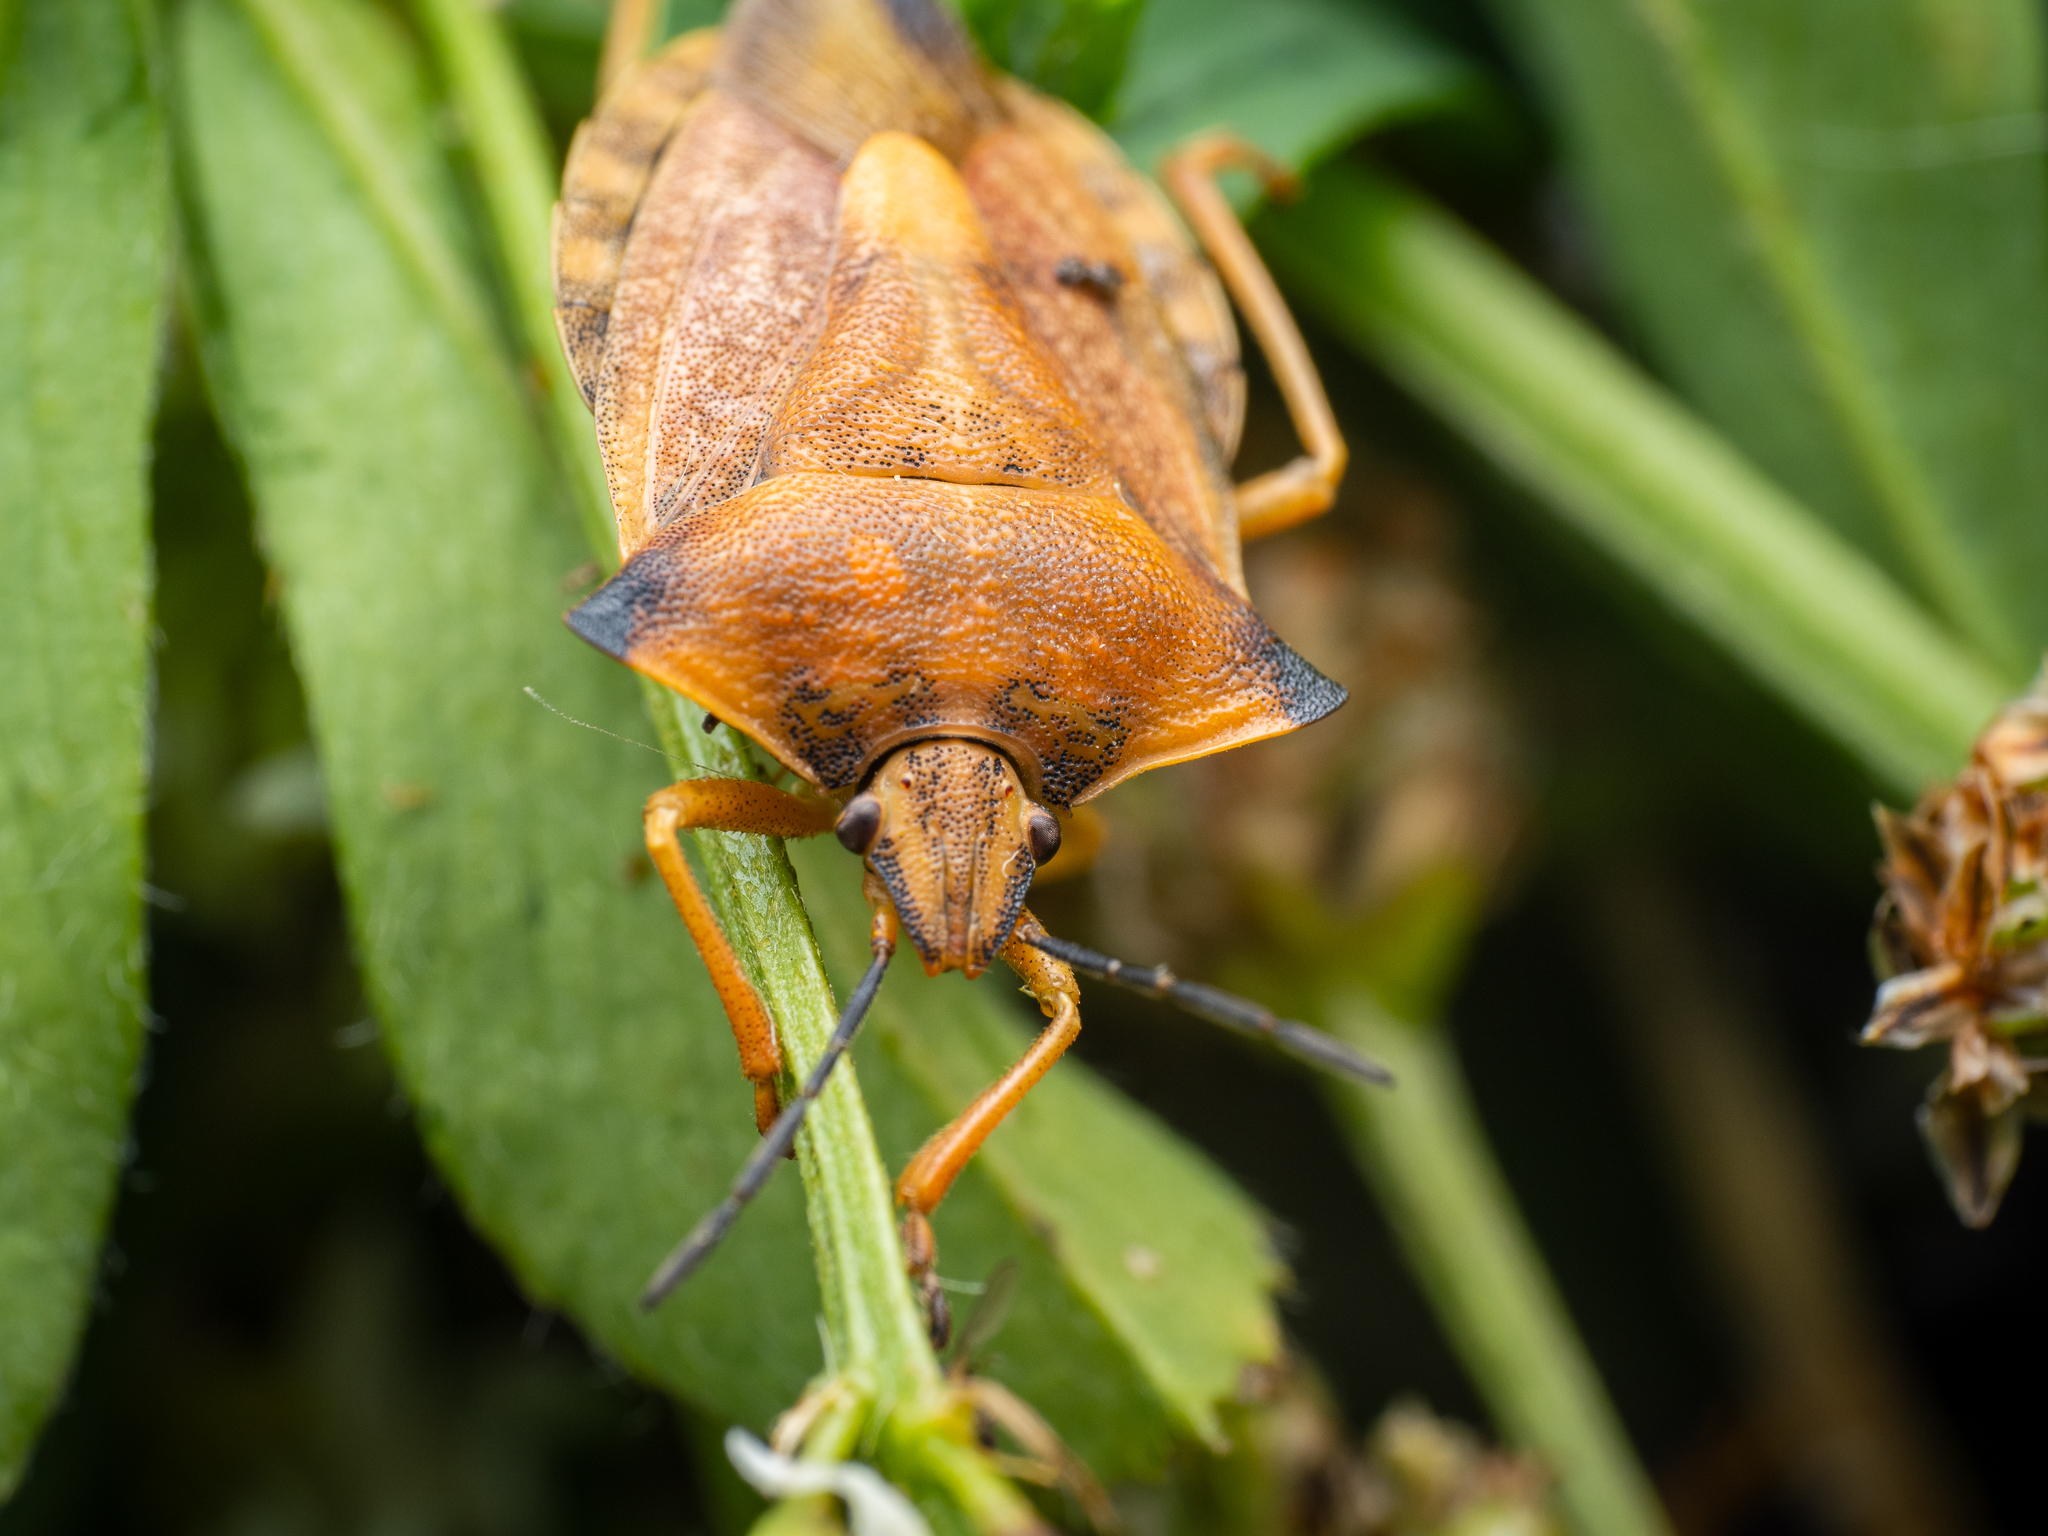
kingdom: Animalia
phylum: Arthropoda
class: Insecta
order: Hemiptera
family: Pentatomidae
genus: Carpocoris
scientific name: Carpocoris fuscispinus
